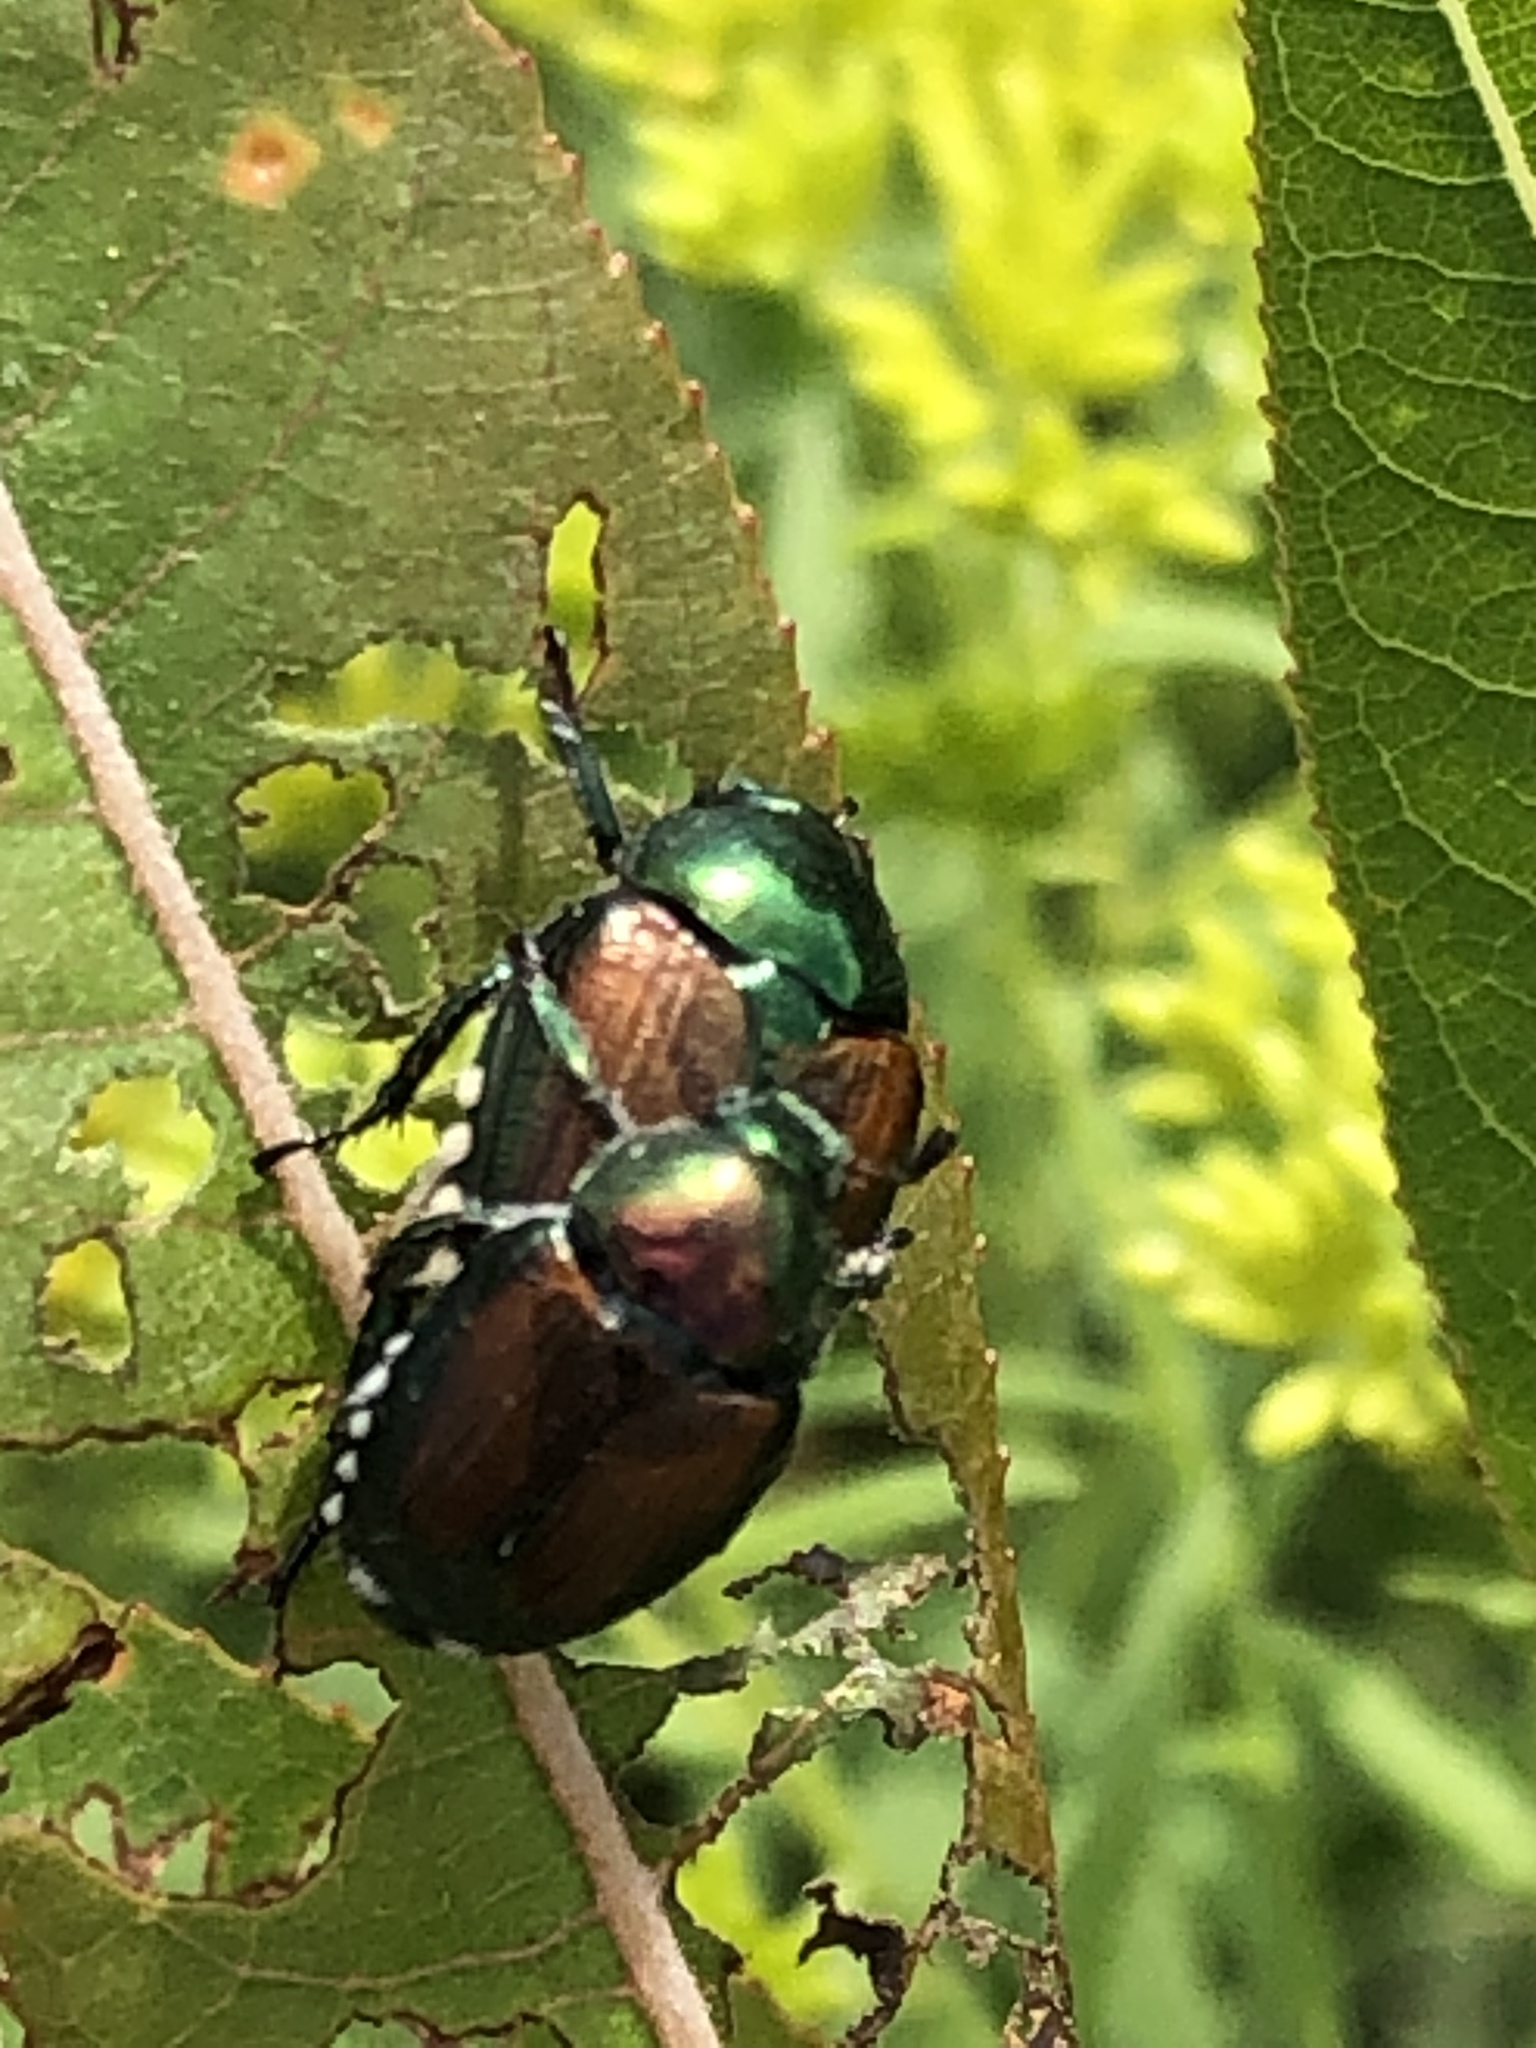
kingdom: Animalia
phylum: Arthropoda
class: Insecta
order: Coleoptera
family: Scarabaeidae
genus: Popillia
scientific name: Popillia japonica
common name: Japanese beetle
